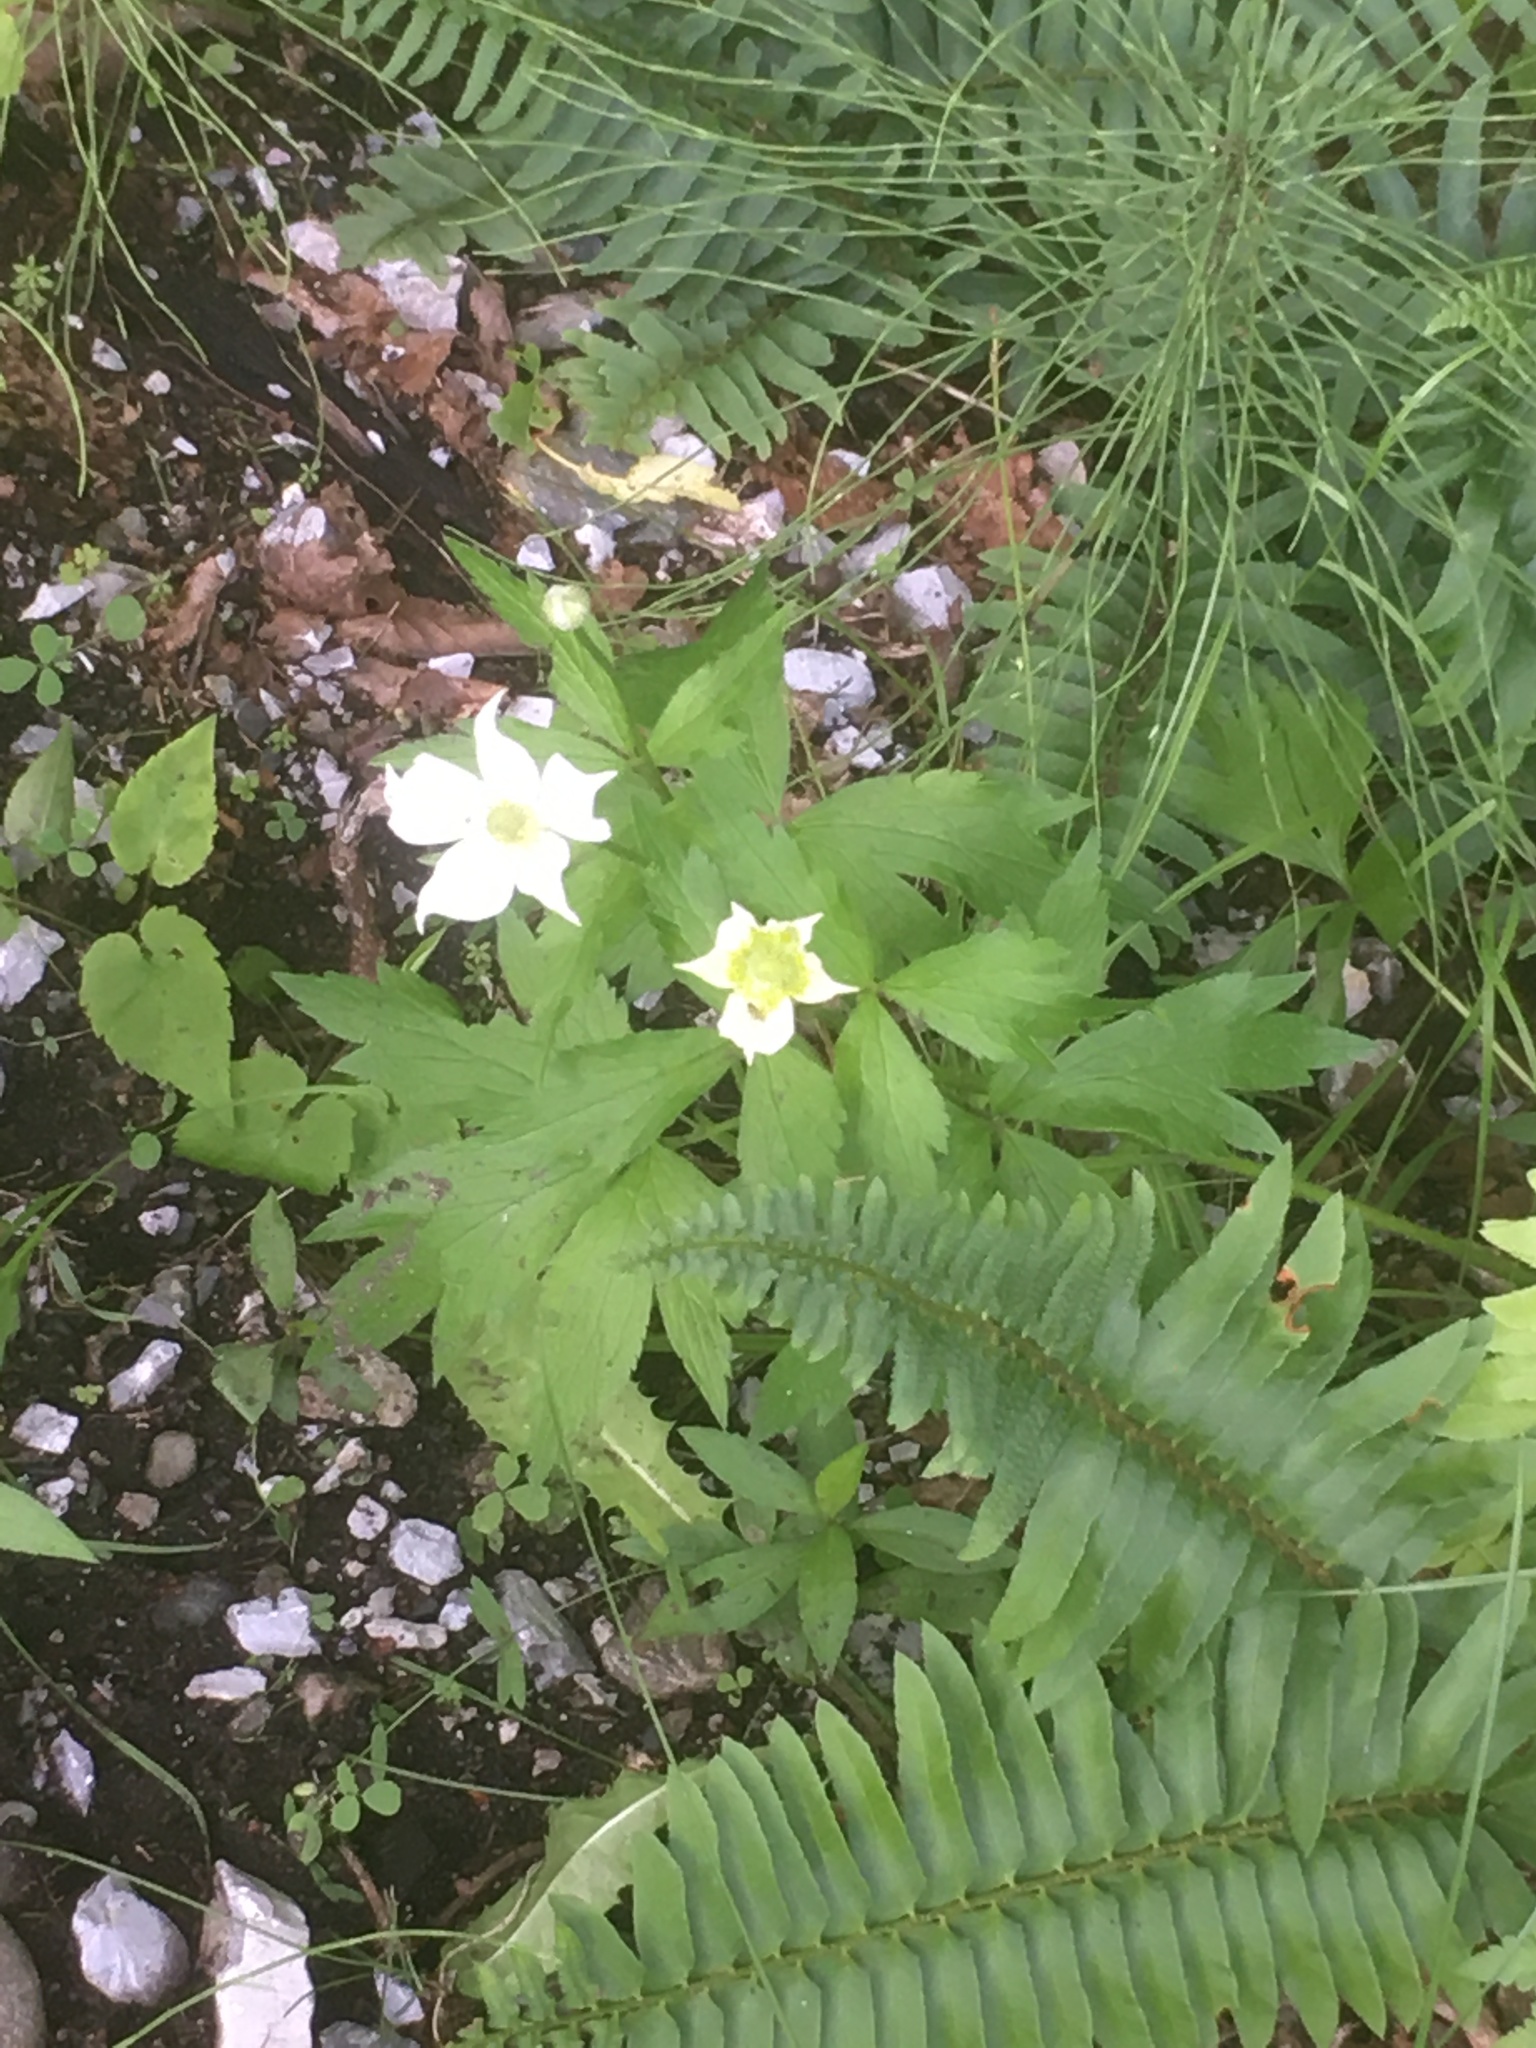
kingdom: Plantae
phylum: Tracheophyta
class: Magnoliopsida
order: Ranunculales
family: Ranunculaceae
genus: Anemonastrum
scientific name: Anemonastrum canadense
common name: Canada anemone
